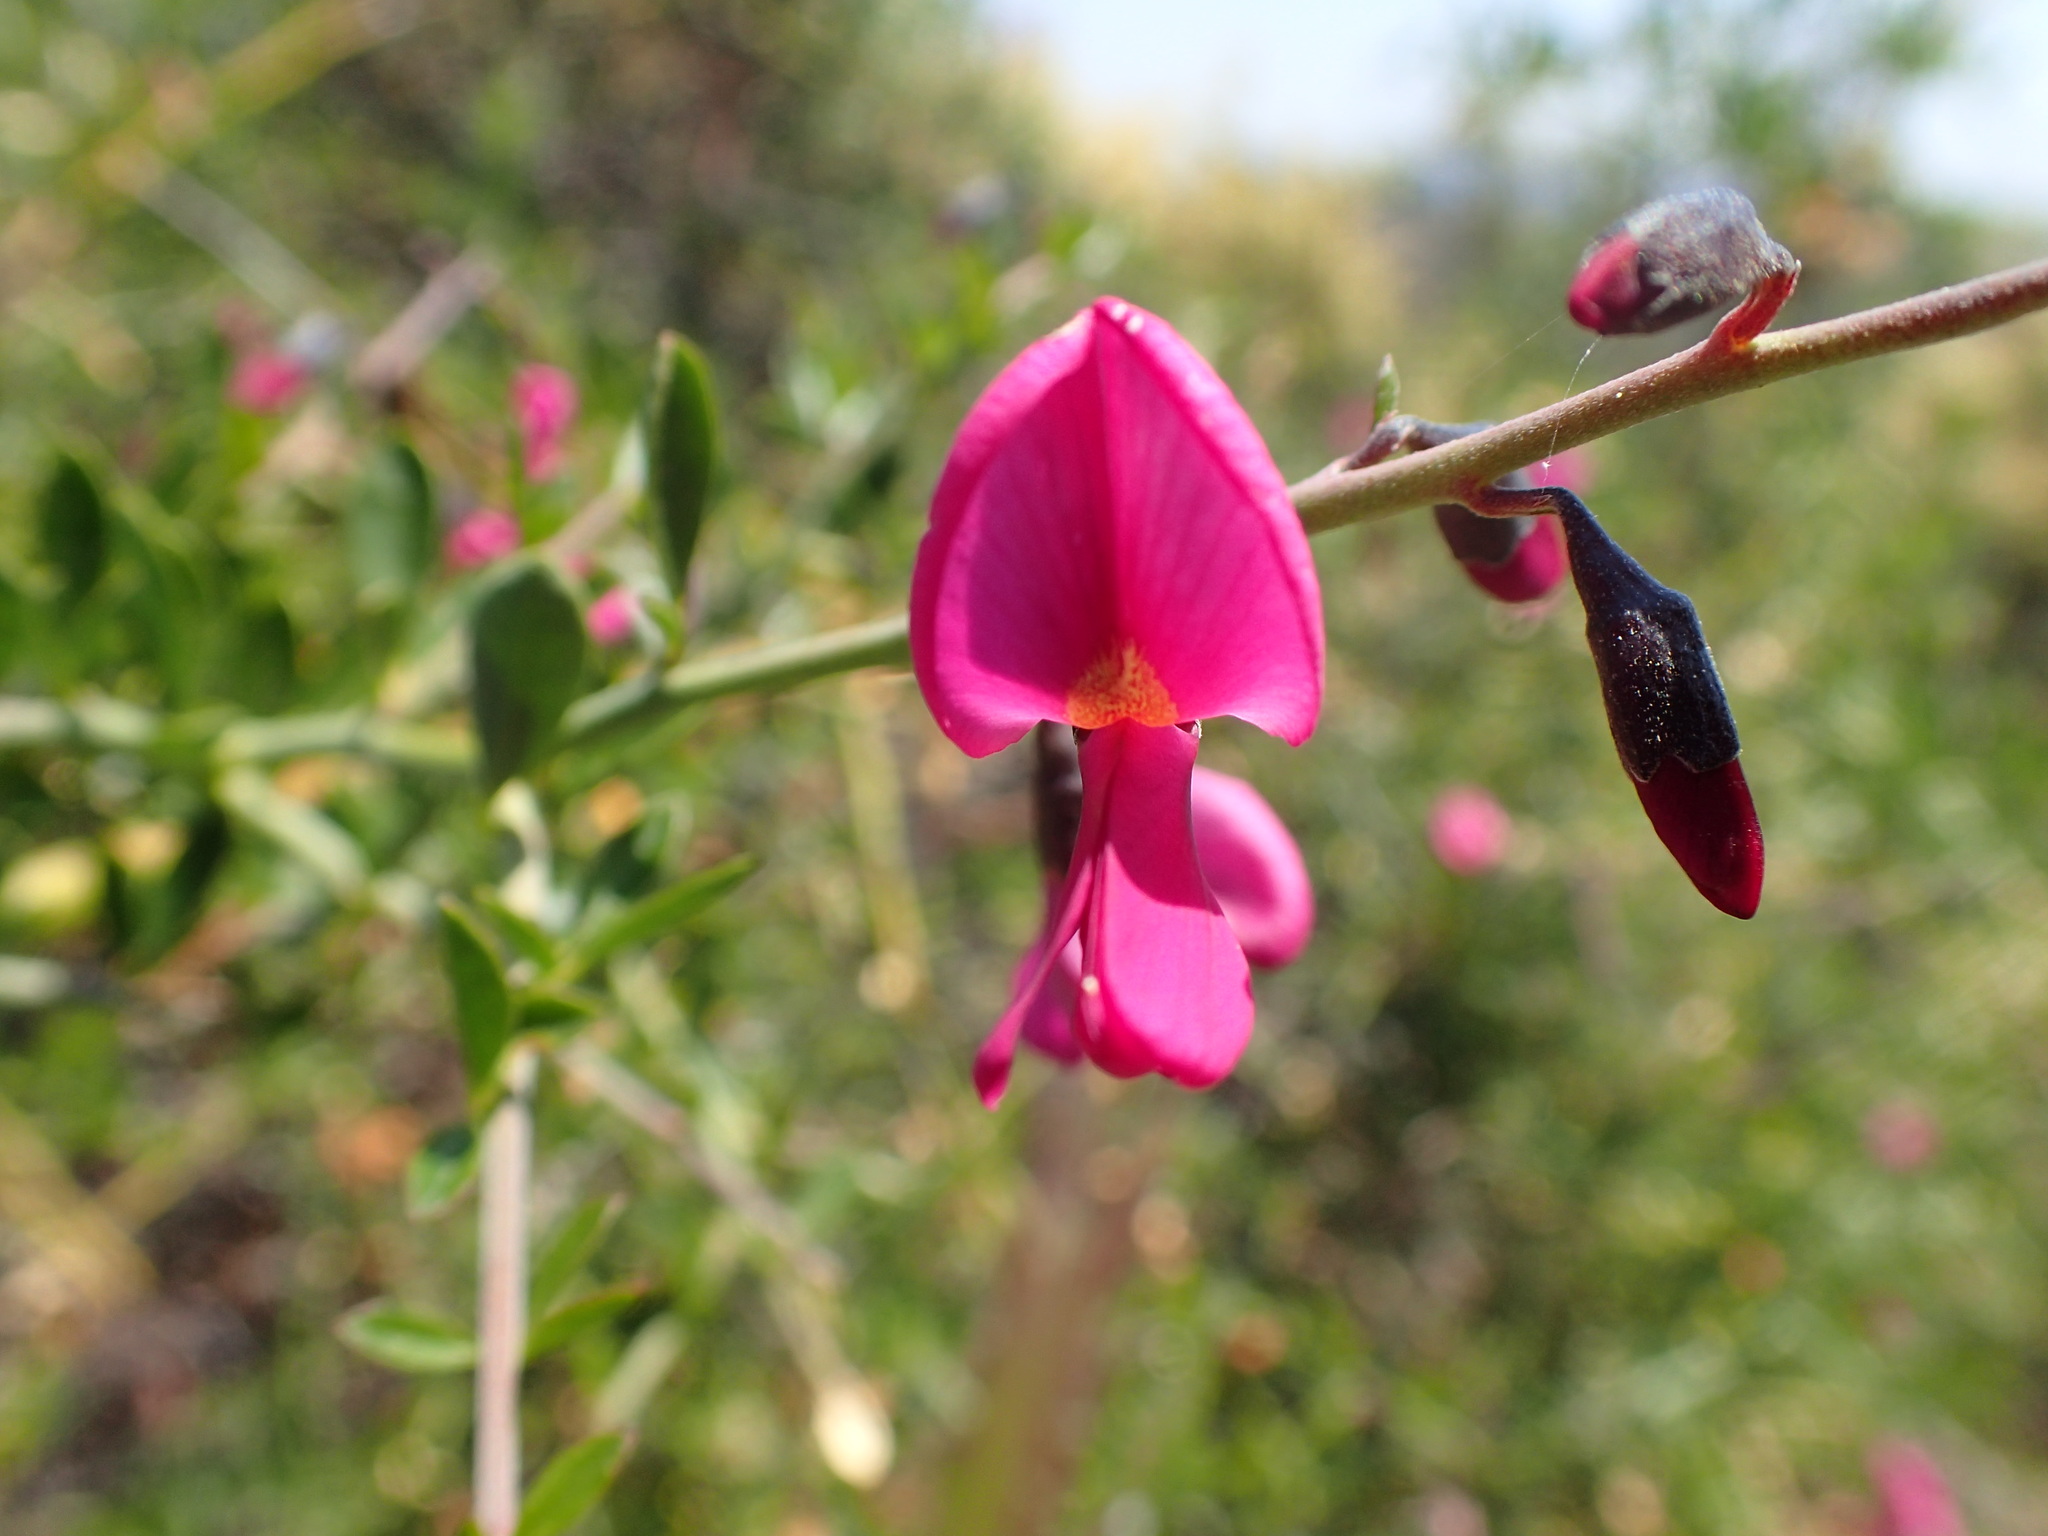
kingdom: Plantae
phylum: Tracheophyta
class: Magnoliopsida
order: Fabales
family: Fabaceae
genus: Pickeringia
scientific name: Pickeringia montana
